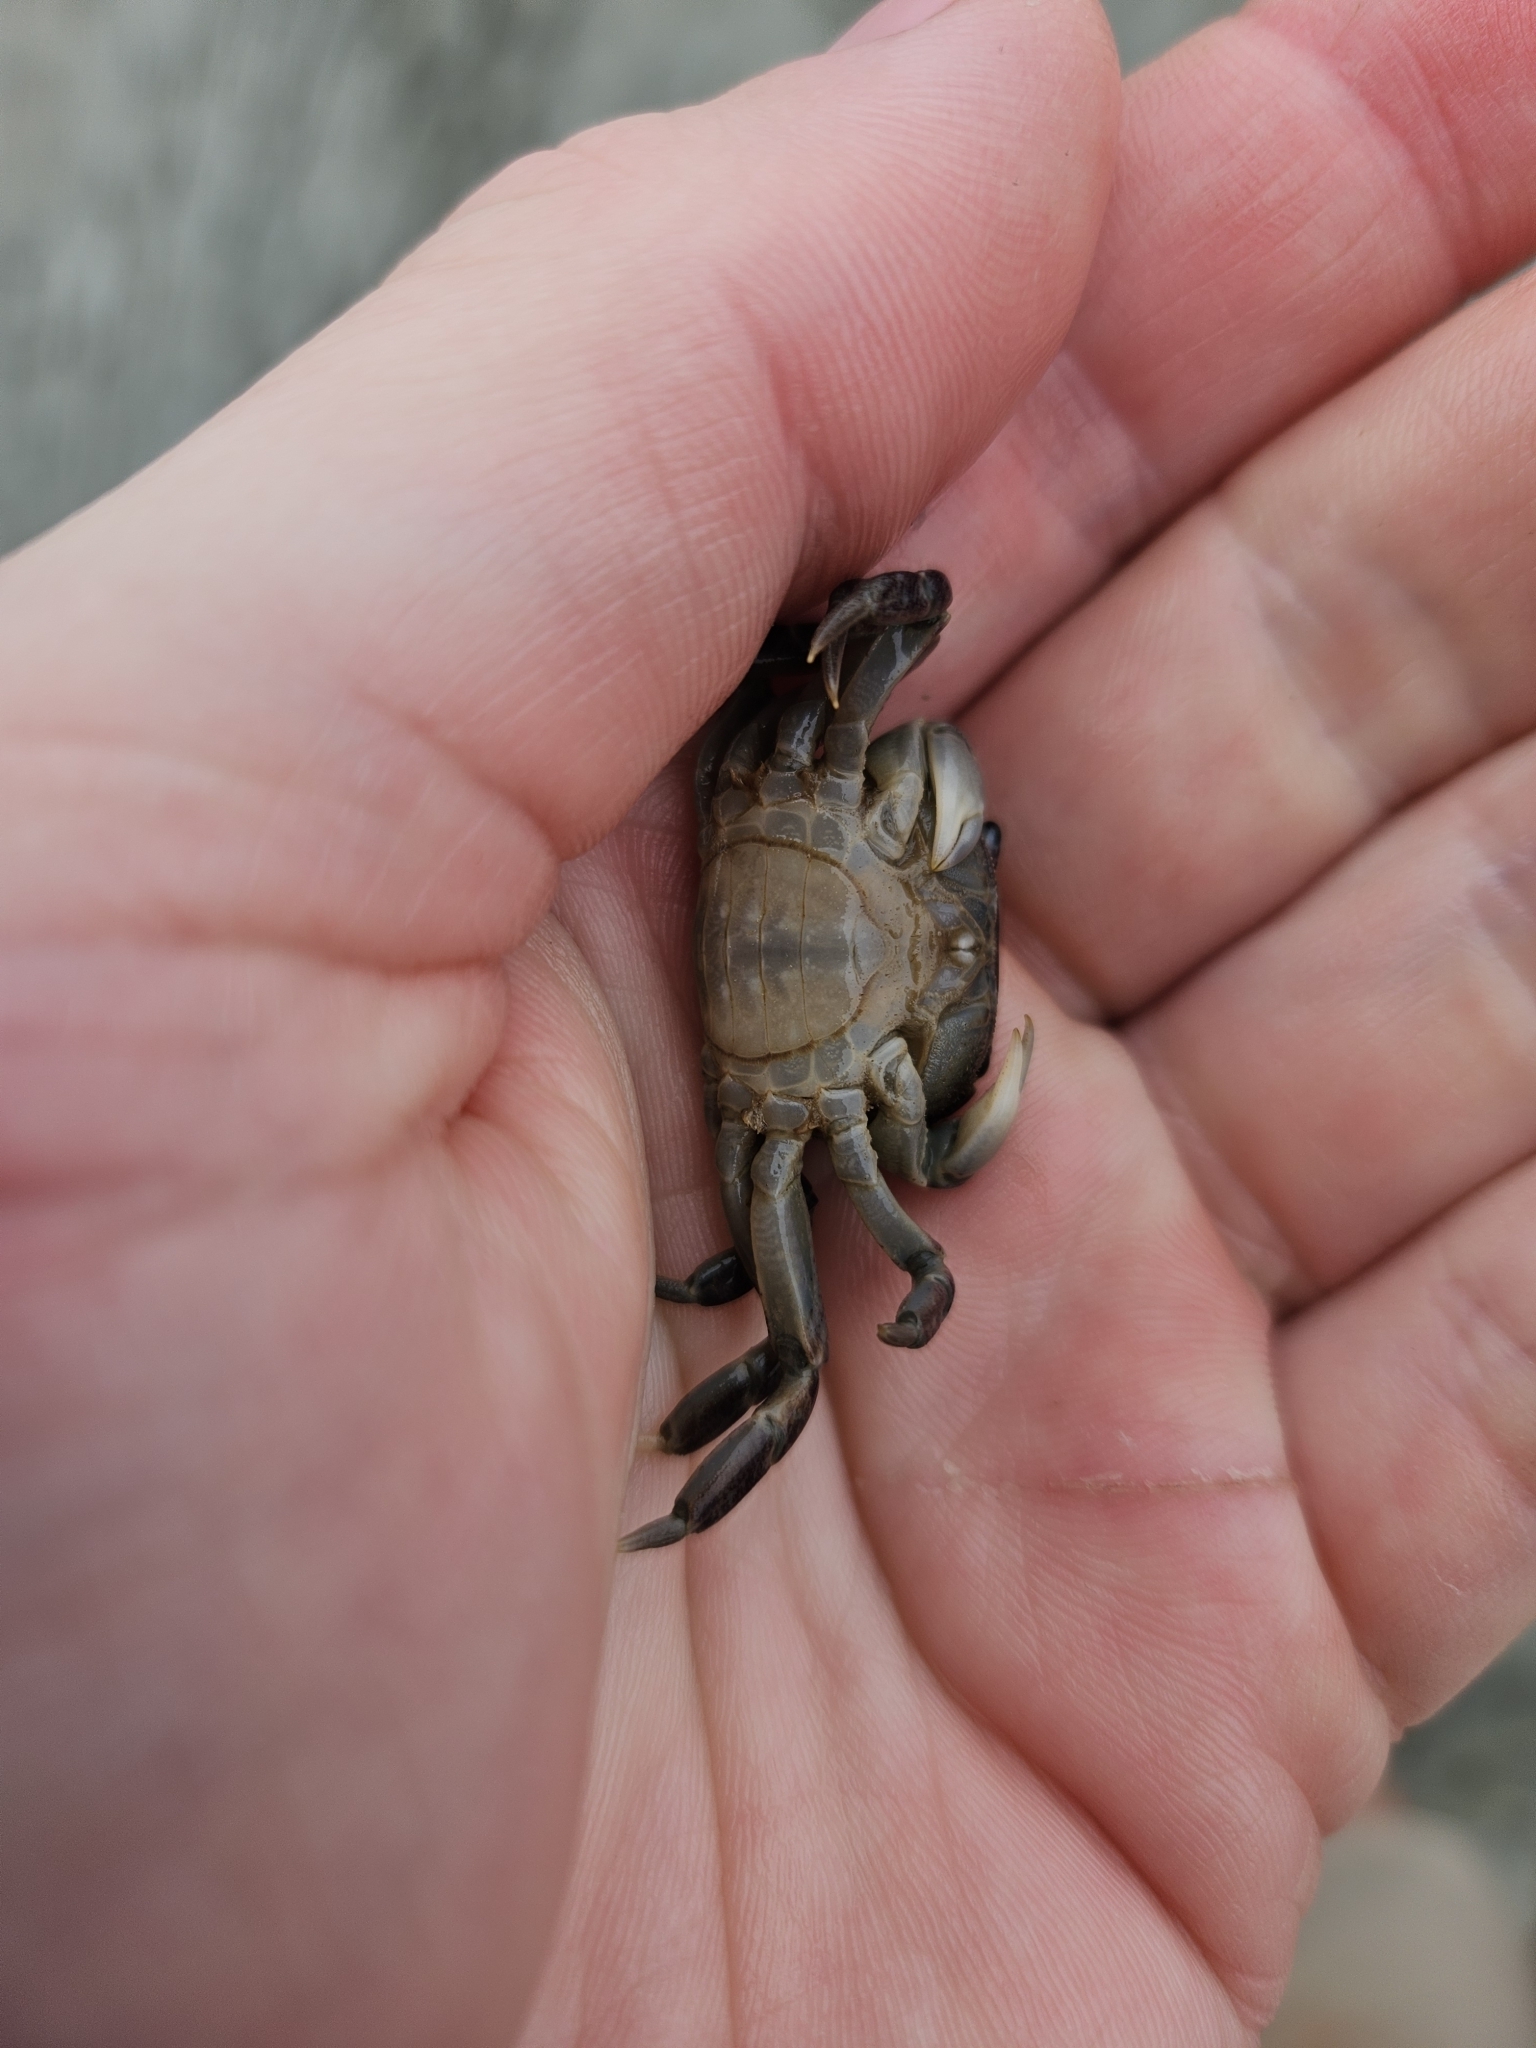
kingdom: Animalia
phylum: Arthropoda
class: Malacostraca
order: Decapoda
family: Varunidae
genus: Cyclograpsus
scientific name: Cyclograpsus lavauxi
